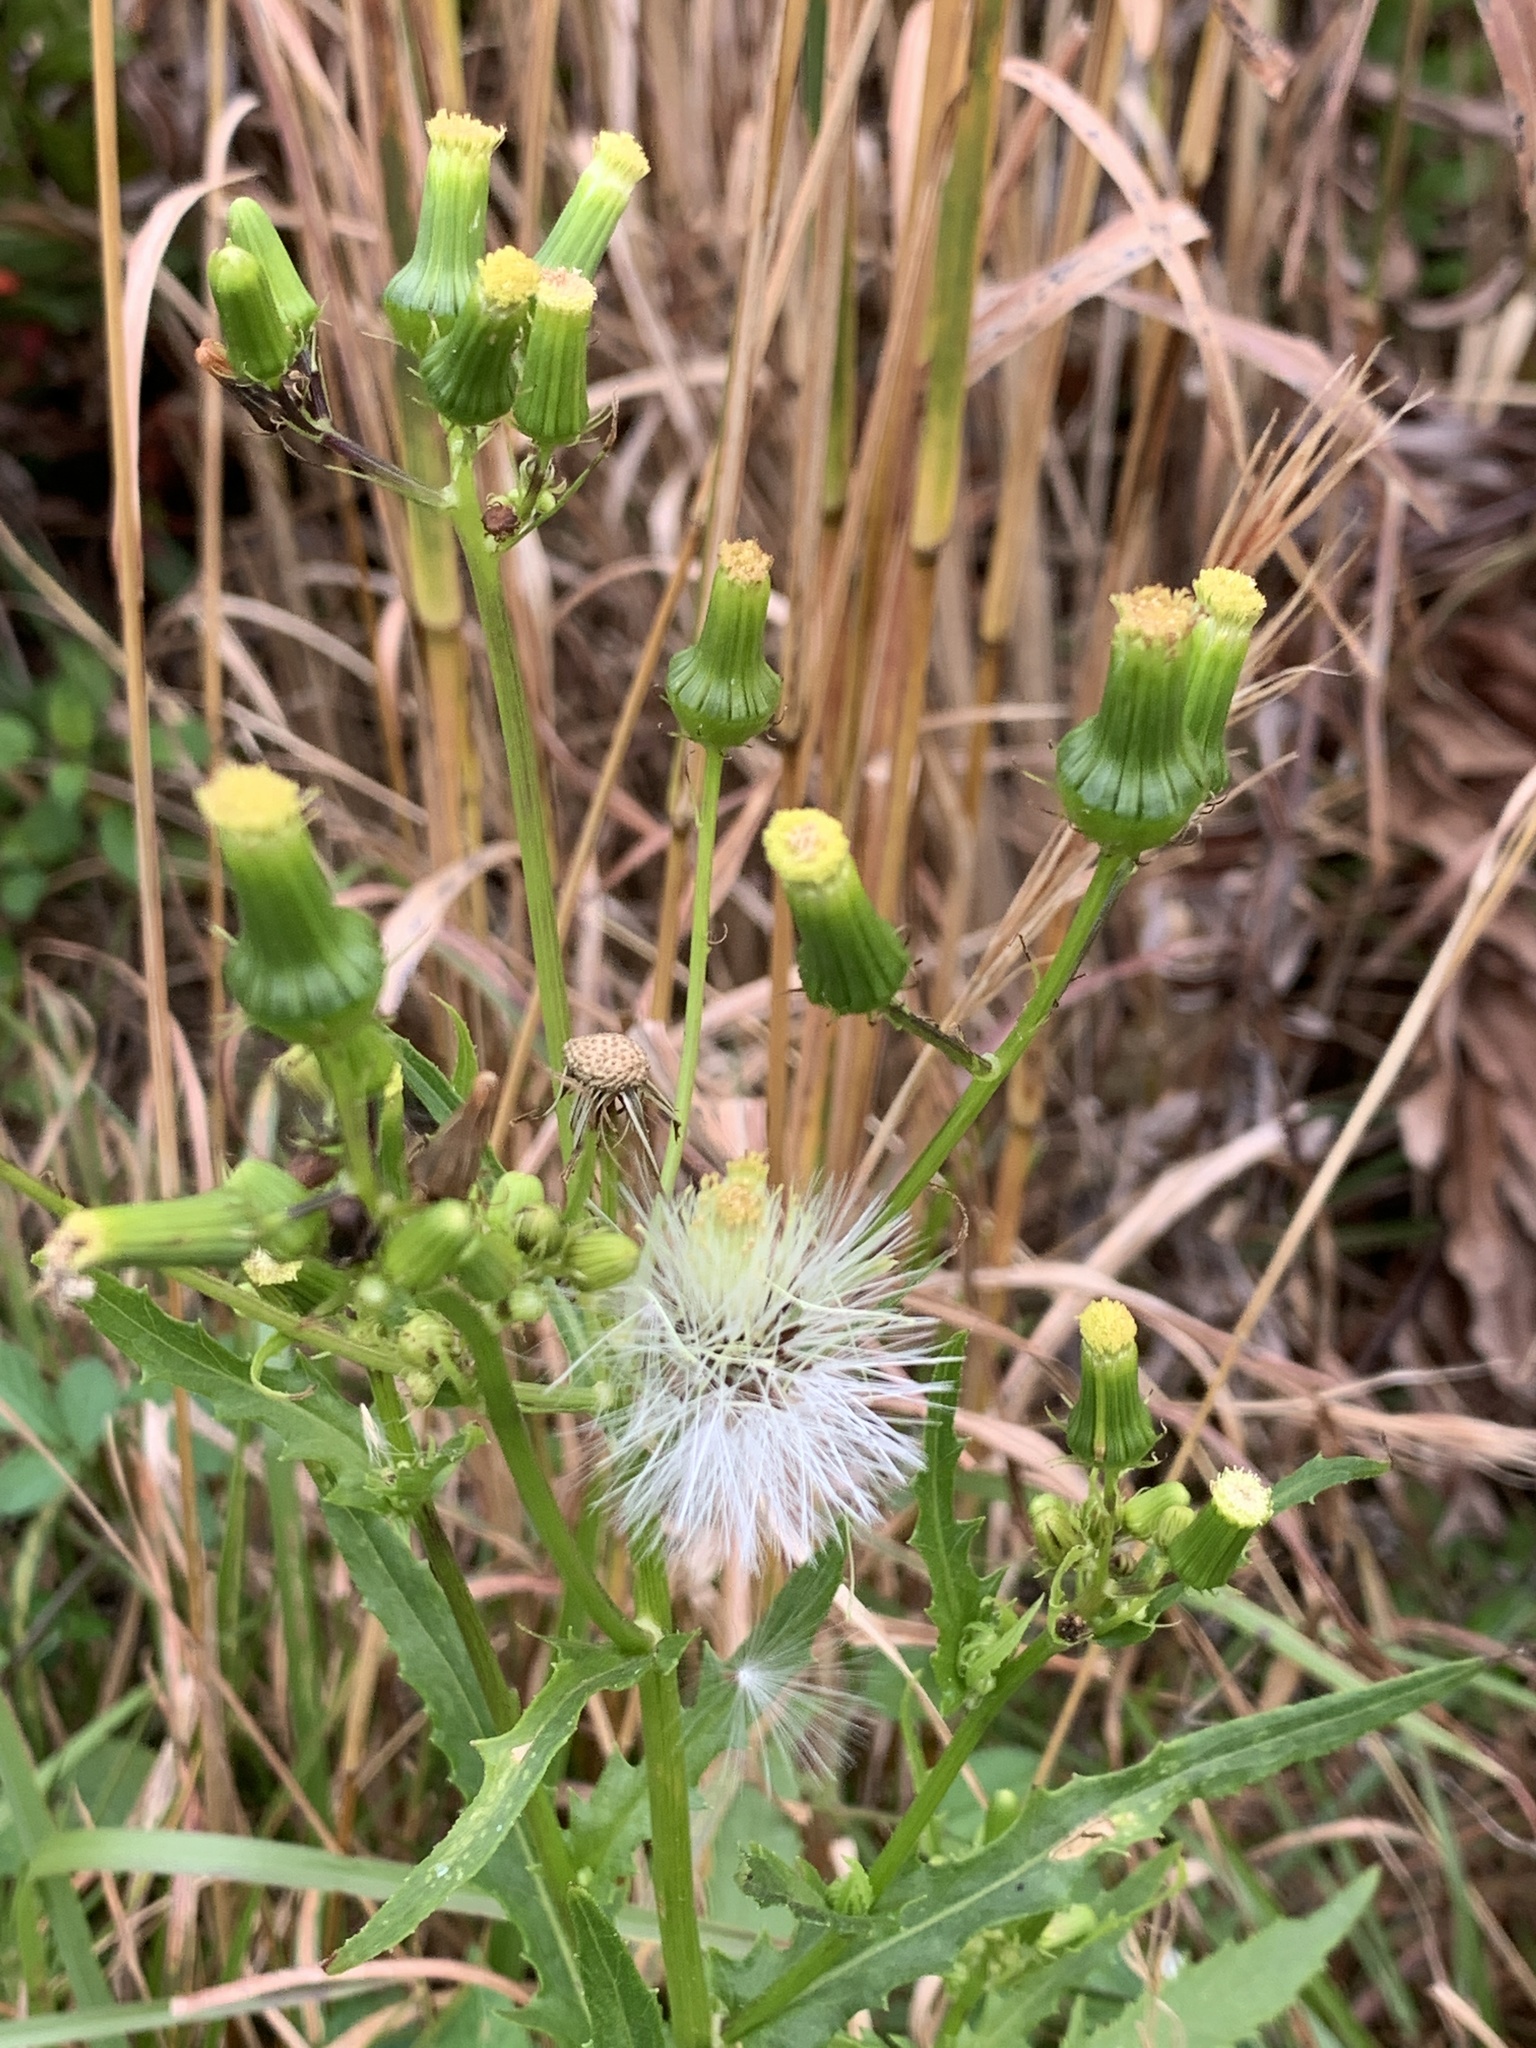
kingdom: Plantae
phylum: Tracheophyta
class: Magnoliopsida
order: Asterales
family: Asteraceae
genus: Erechtites
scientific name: Erechtites hieraciifolius
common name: American burnweed
